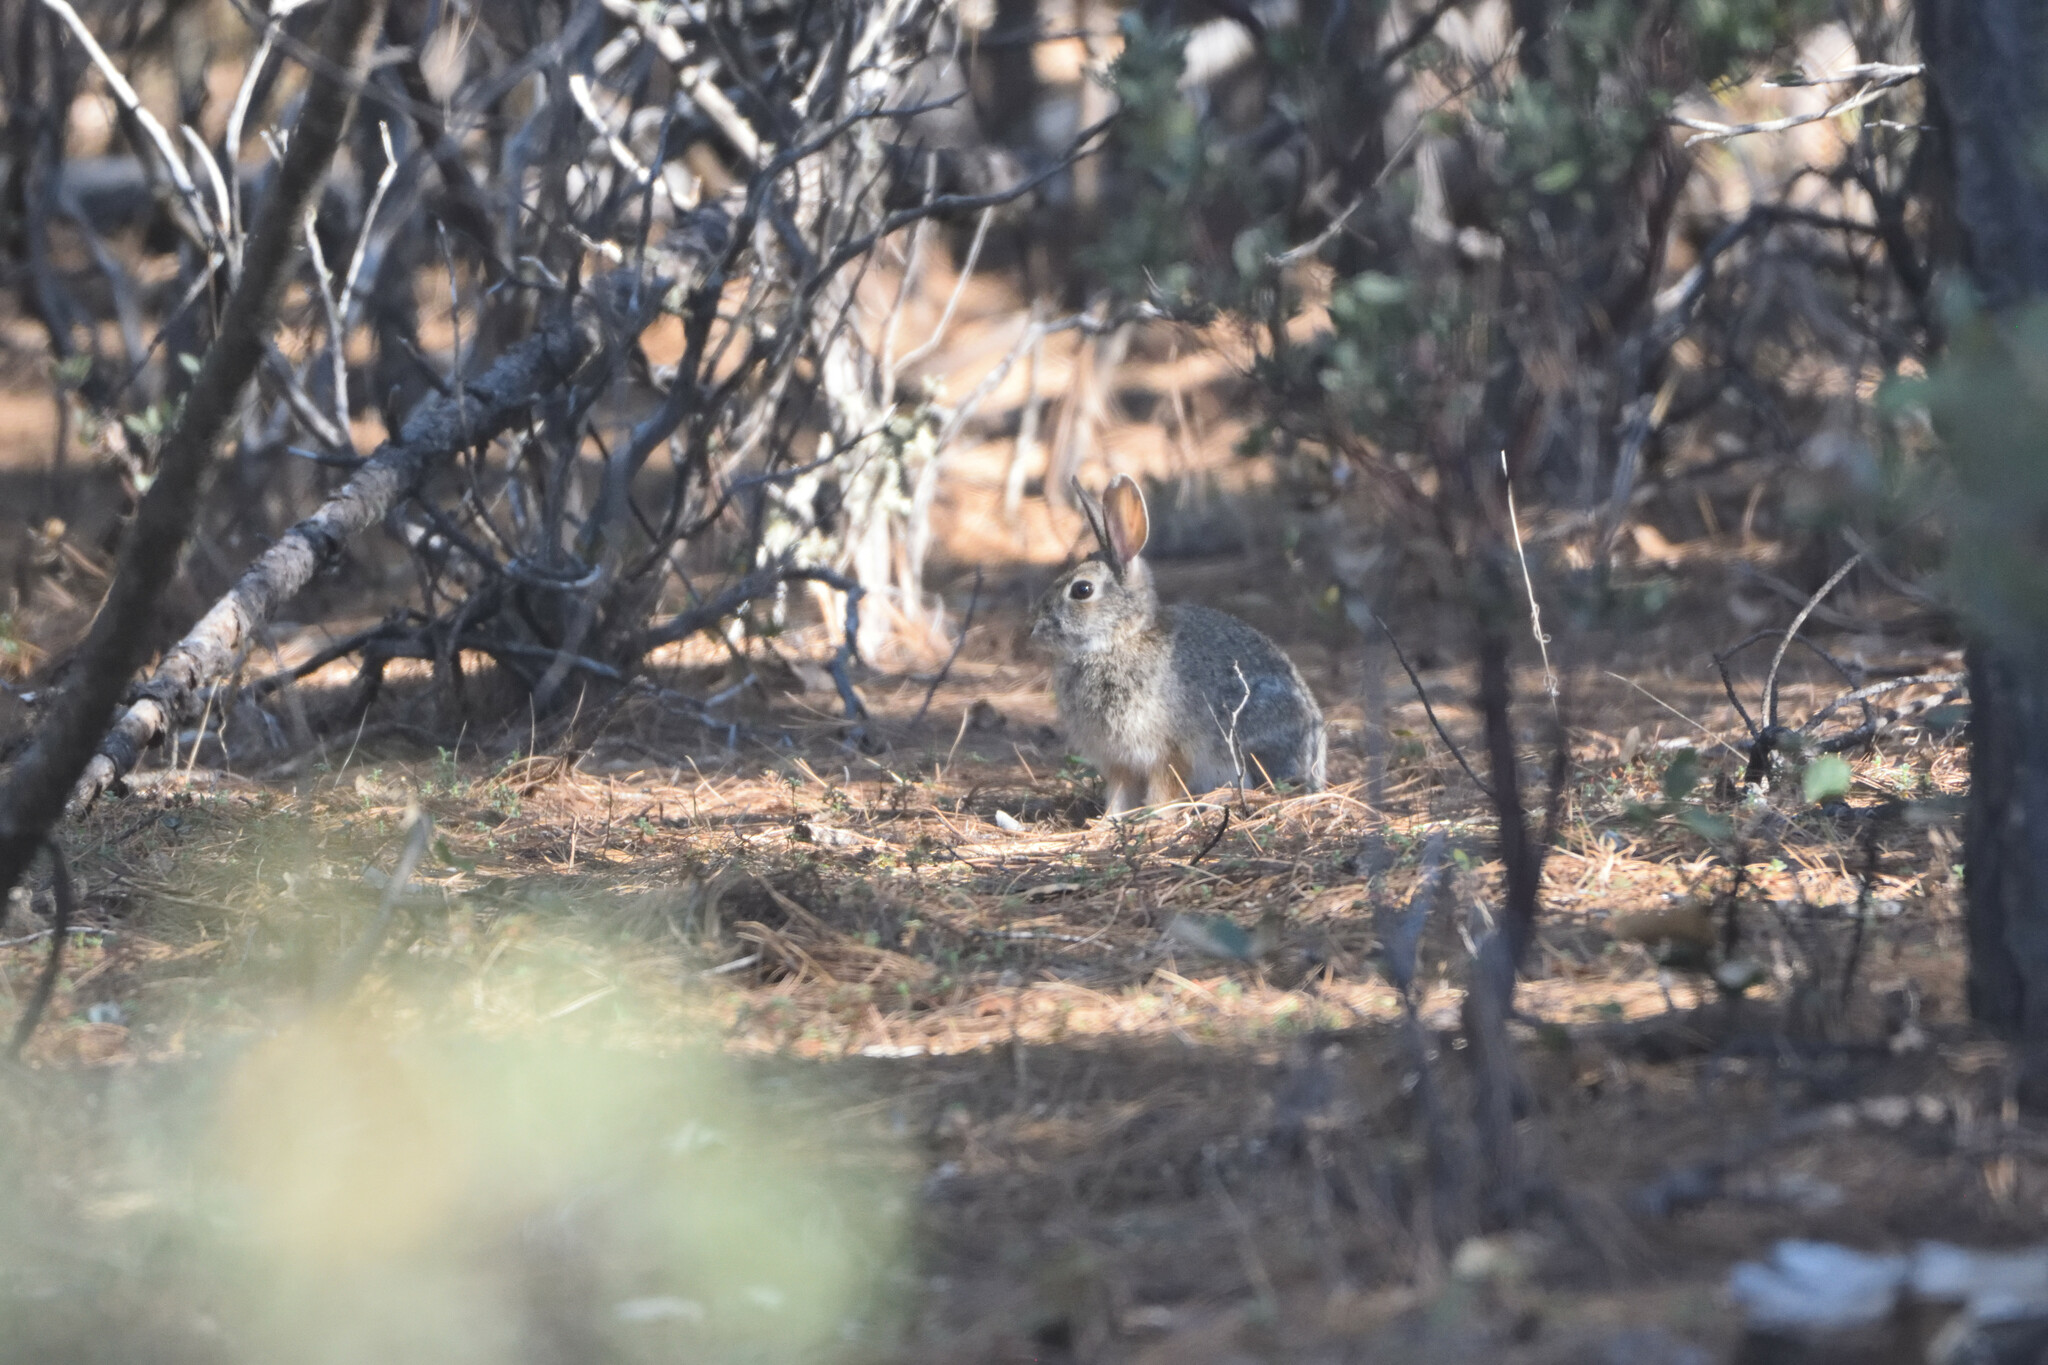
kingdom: Animalia
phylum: Chordata
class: Mammalia
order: Lagomorpha
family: Leporidae
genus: Sylvilagus
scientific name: Sylvilagus
